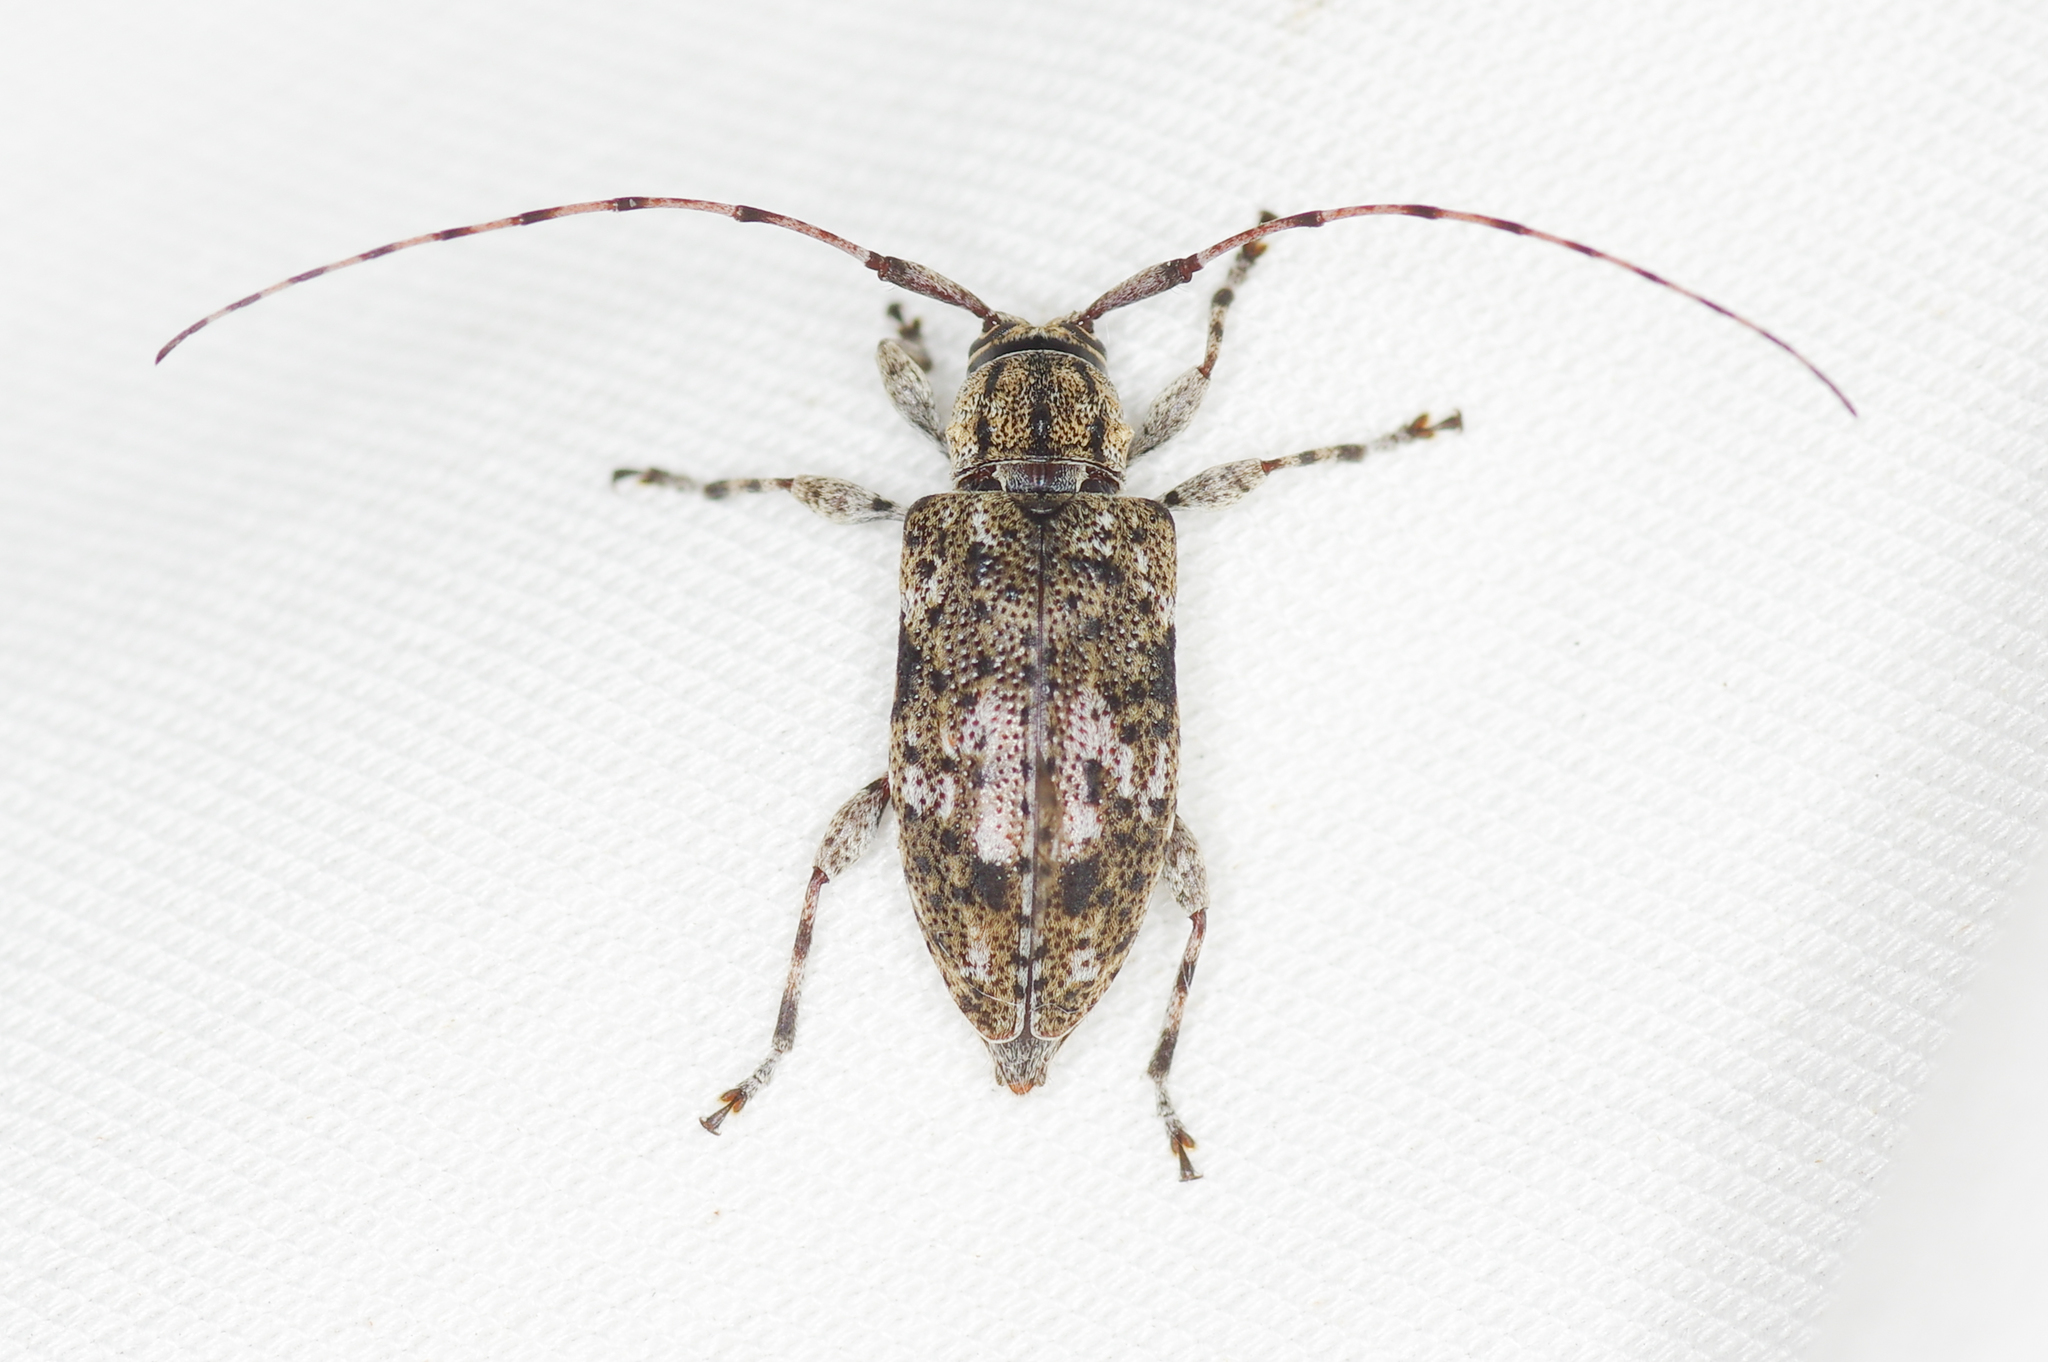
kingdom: Animalia
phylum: Arthropoda
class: Insecta
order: Coleoptera
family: Cerambycidae
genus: Astylopsis
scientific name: Astylopsis macula
